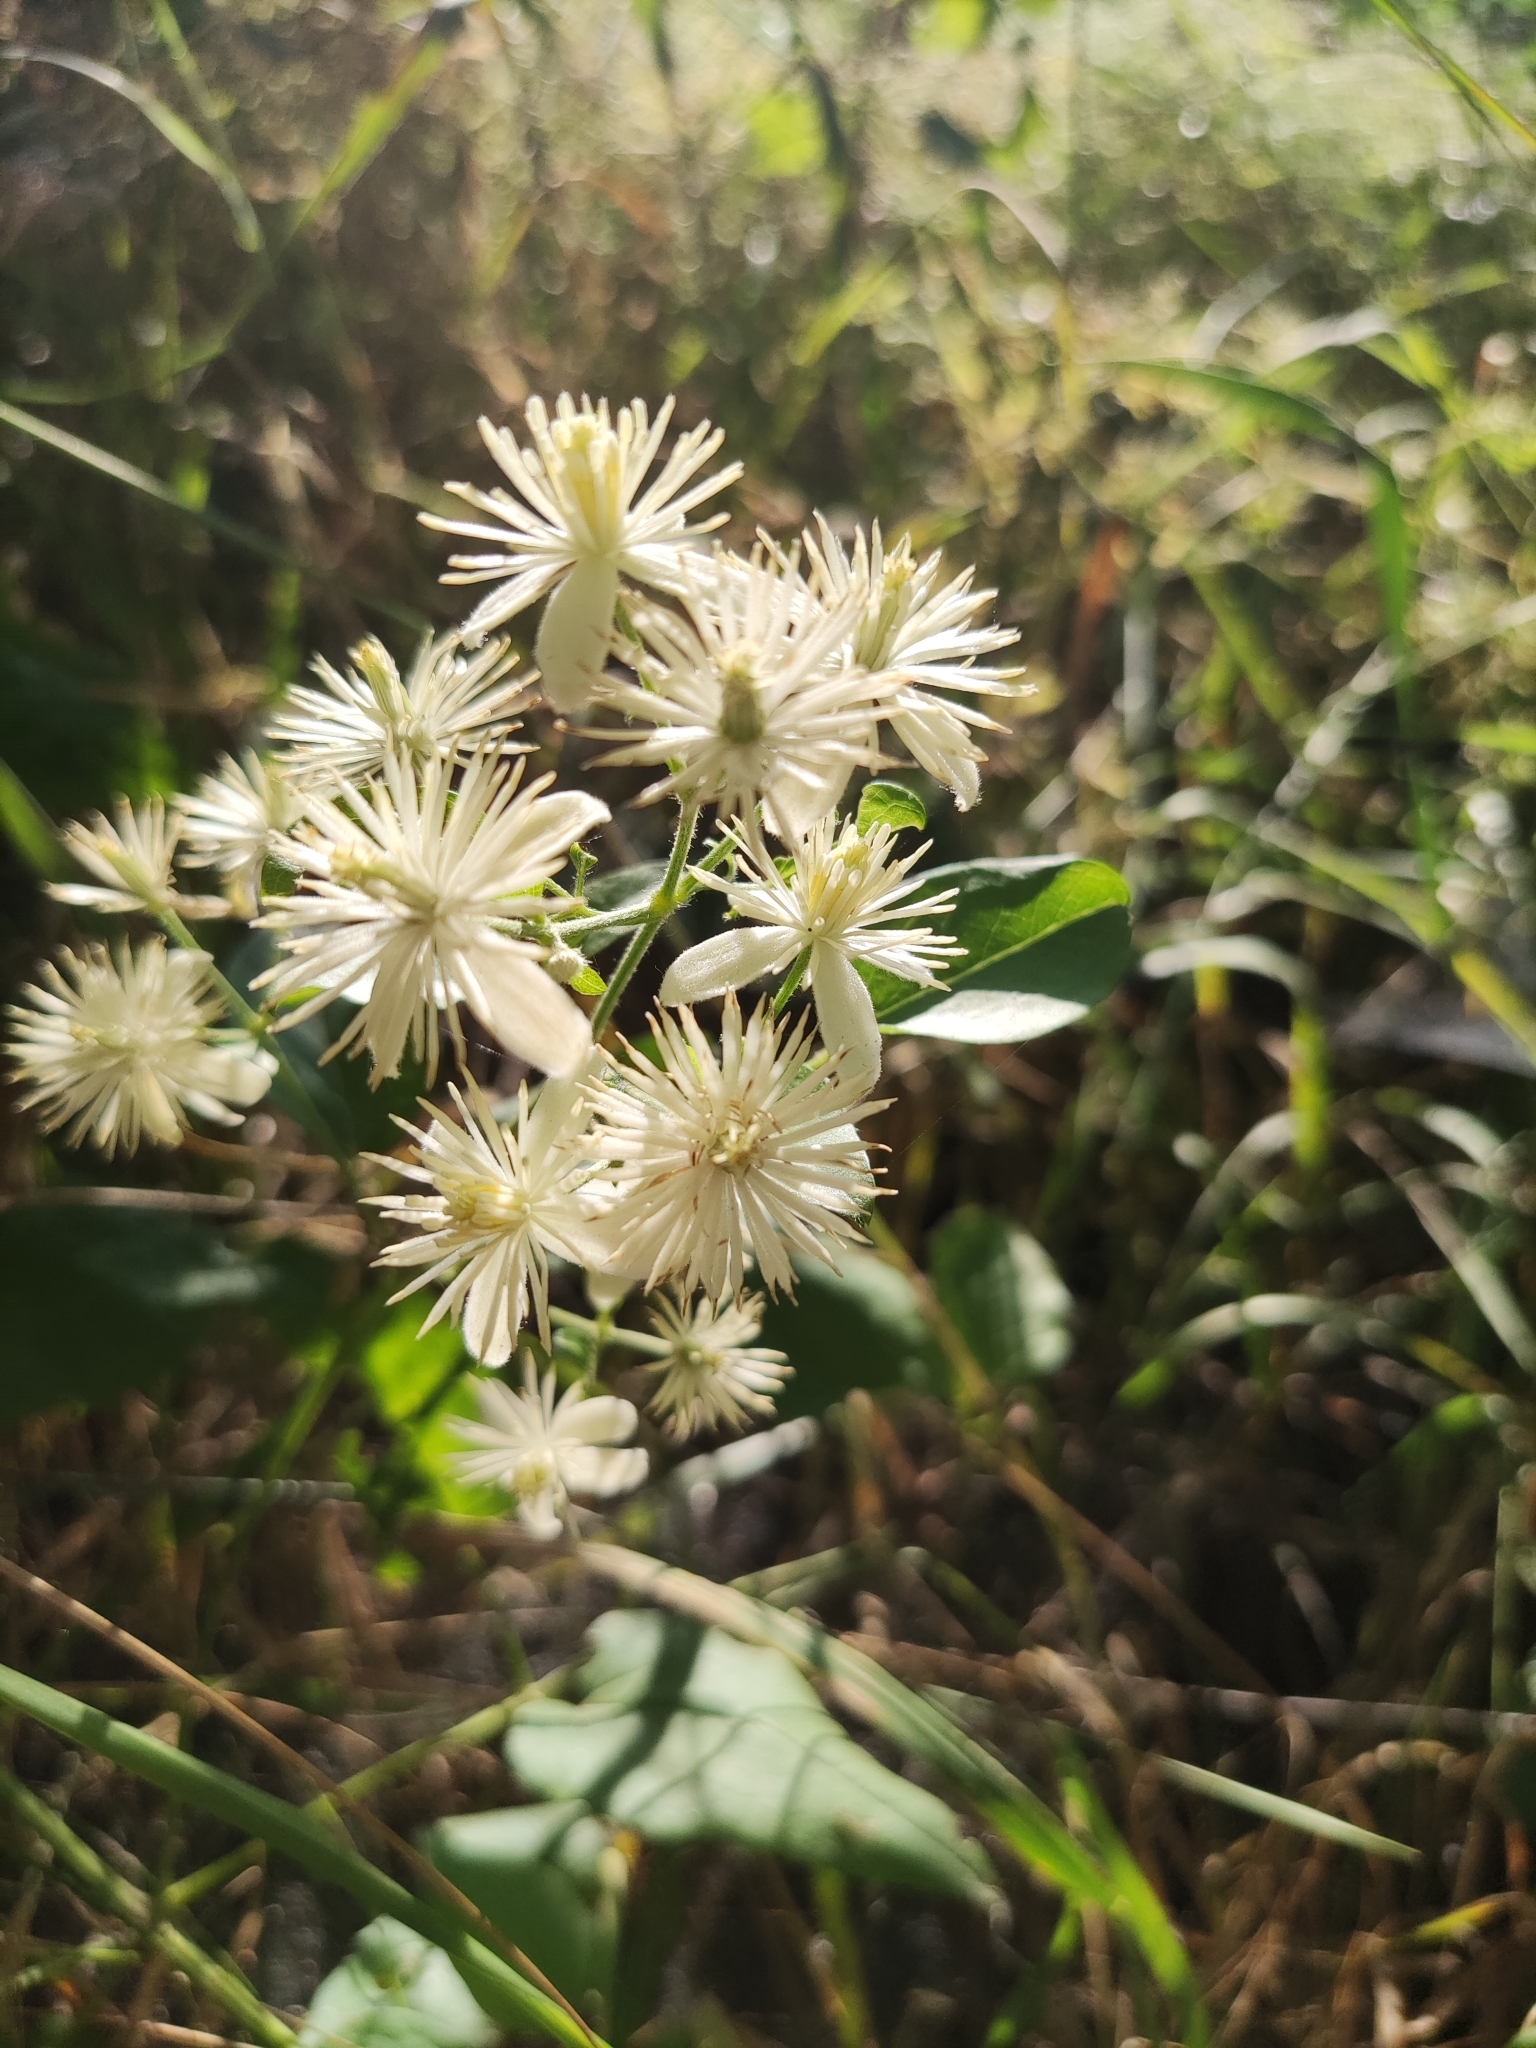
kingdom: Plantae
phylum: Tracheophyta
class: Magnoliopsida
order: Ranunculales
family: Ranunculaceae
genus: Clematis
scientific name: Clematis vitalba
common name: Evergreen clematis
